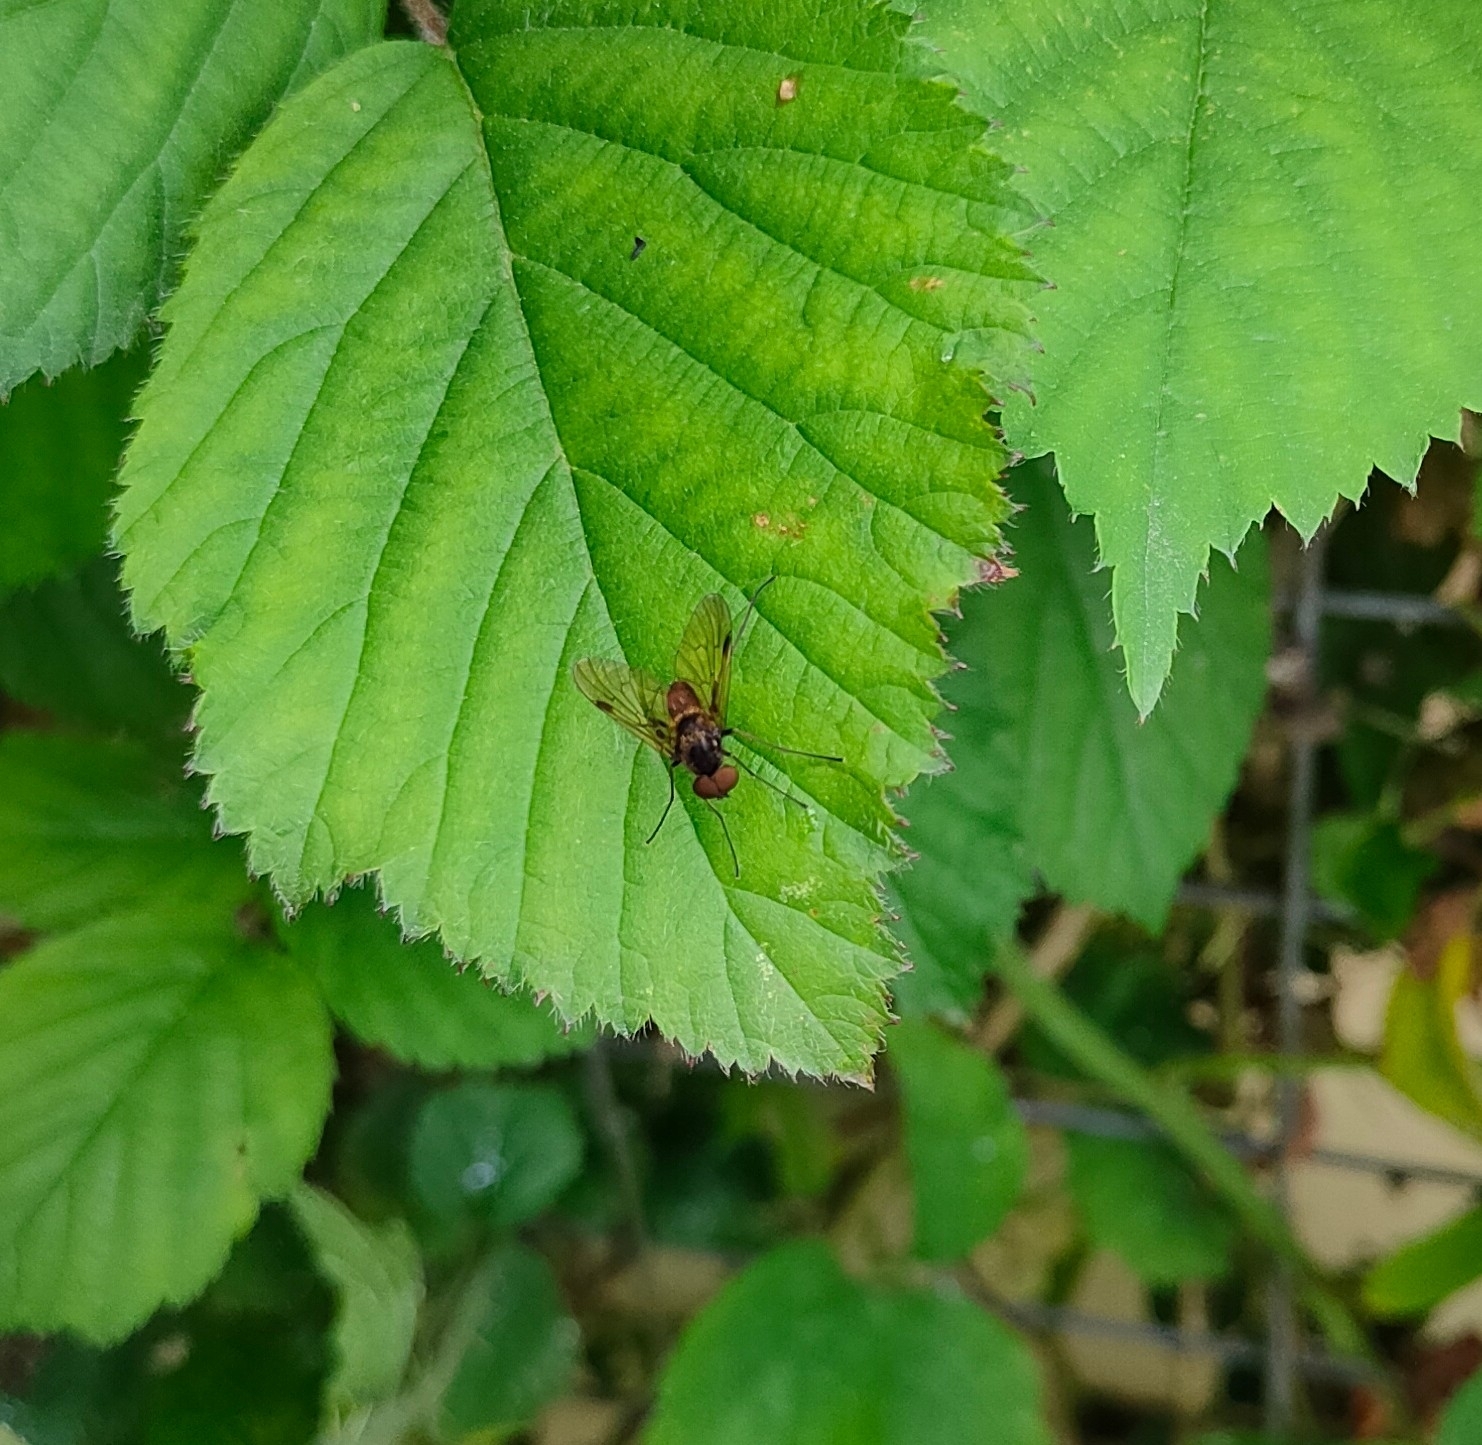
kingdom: Animalia
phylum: Arthropoda
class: Insecta
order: Diptera
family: Rhagionidae
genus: Chrysopilus
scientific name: Chrysopilus cristatus
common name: Black snipefly
